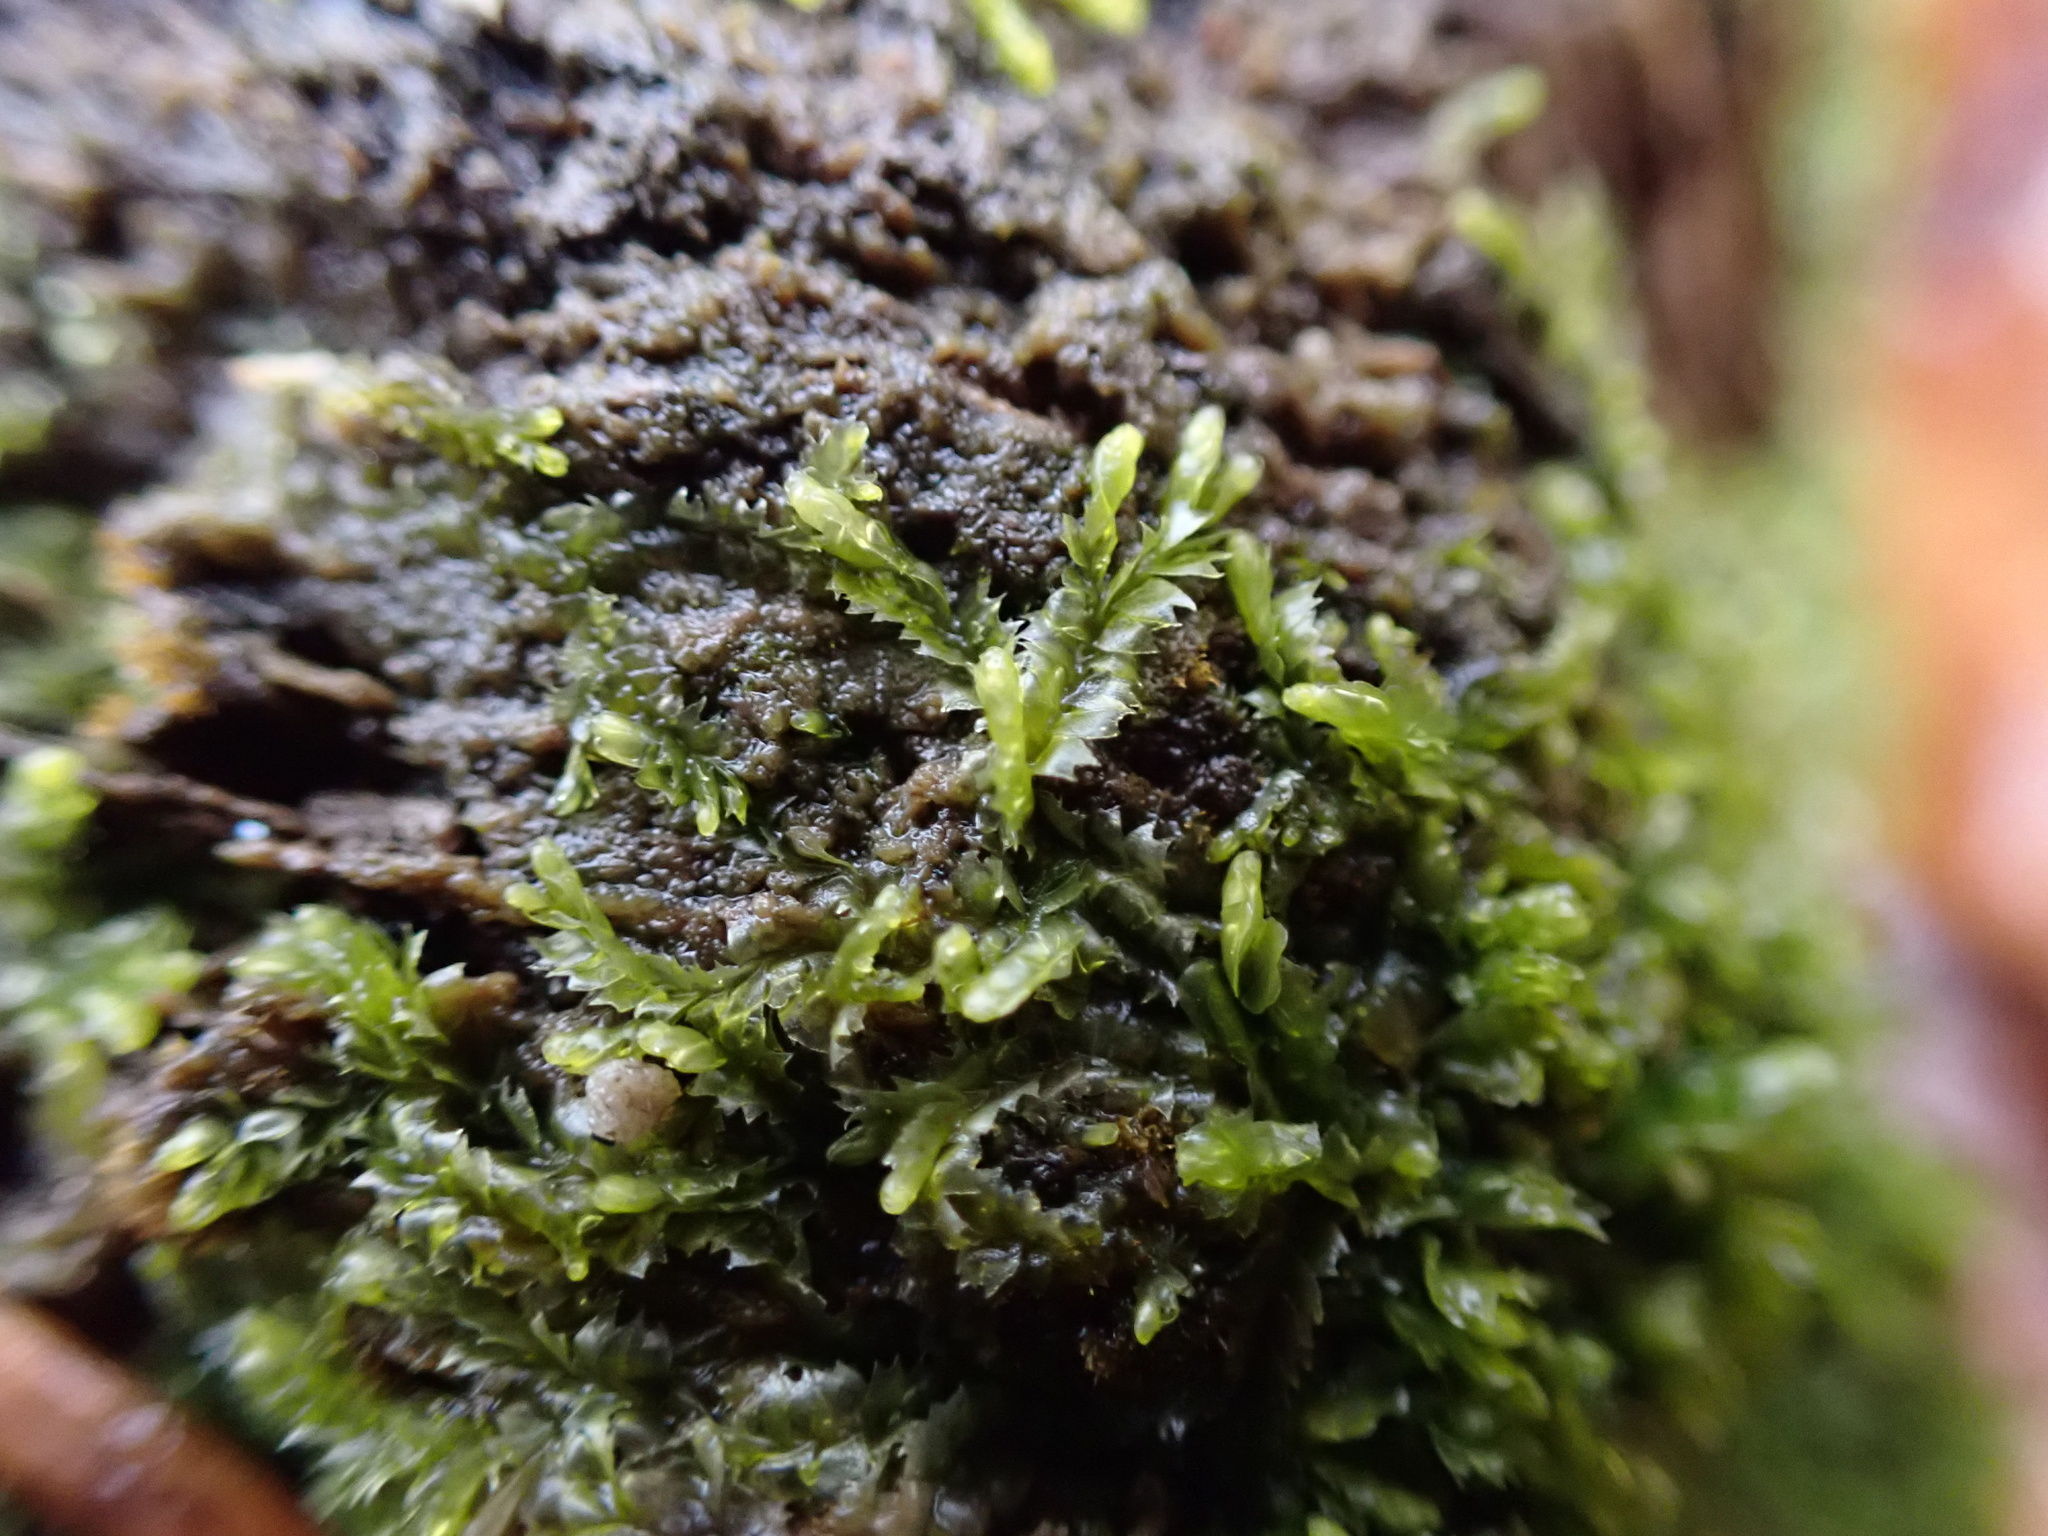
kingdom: Plantae
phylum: Marchantiophyta
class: Jungermanniopsida
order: Jungermanniales
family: Lophocoleaceae
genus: Lophocolea
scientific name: Lophocolea heterophylla
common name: Variable-leaved crestwort
